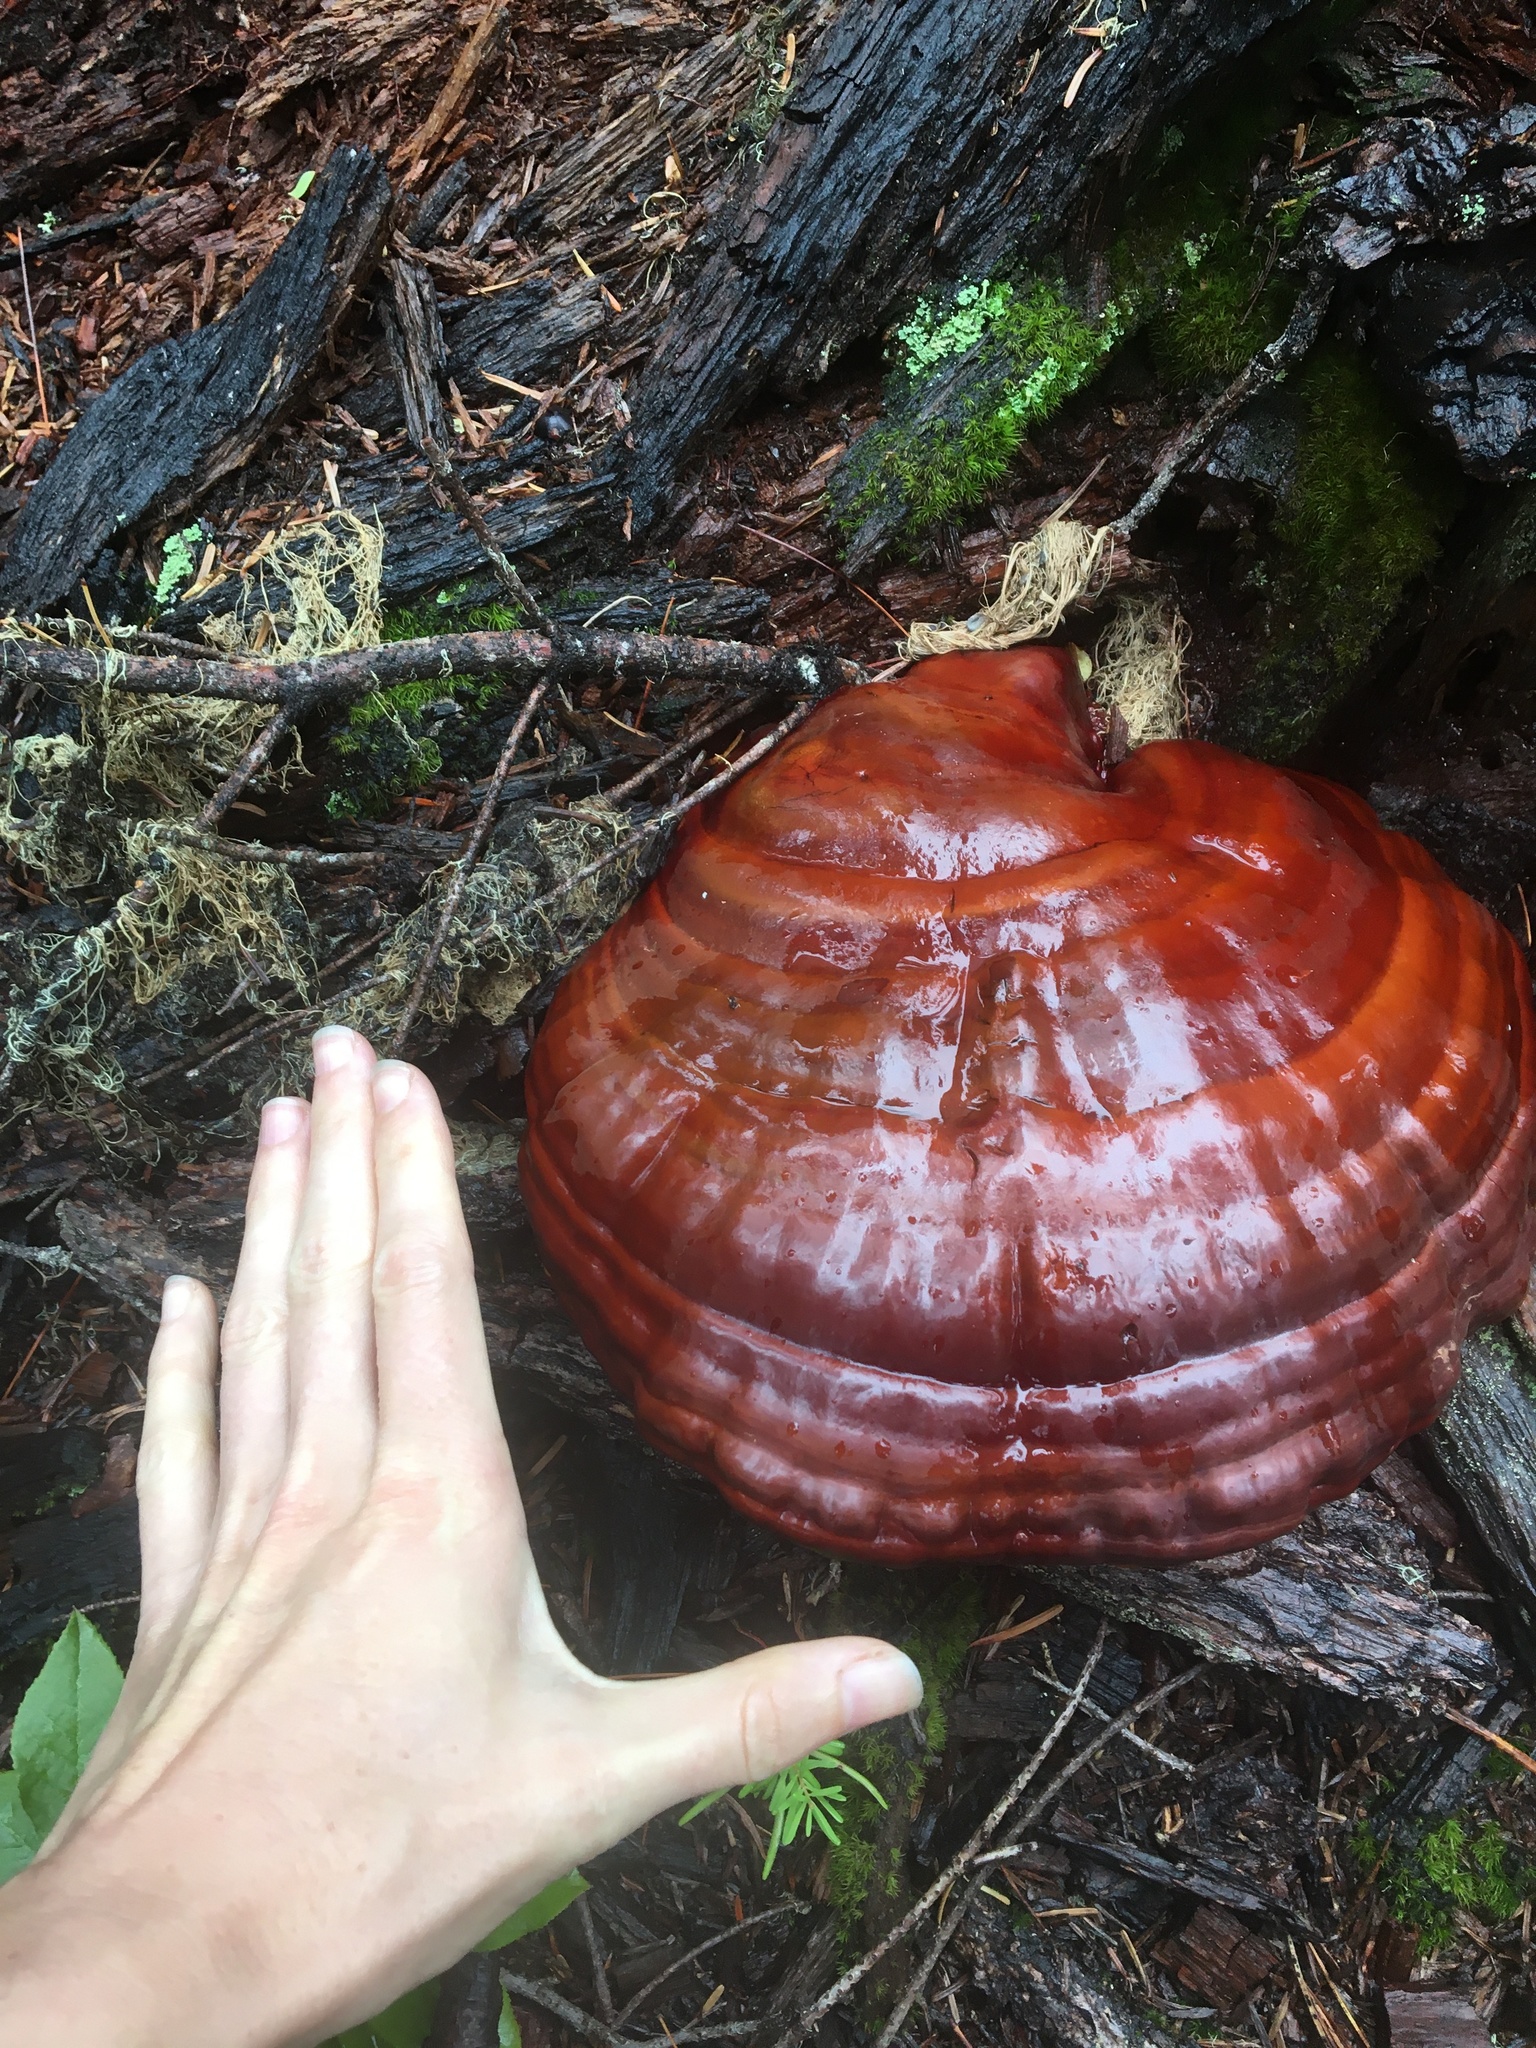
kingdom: Fungi
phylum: Basidiomycota
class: Agaricomycetes
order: Polyporales
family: Polyporaceae
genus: Ganoderma
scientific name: Ganoderma oregonense
